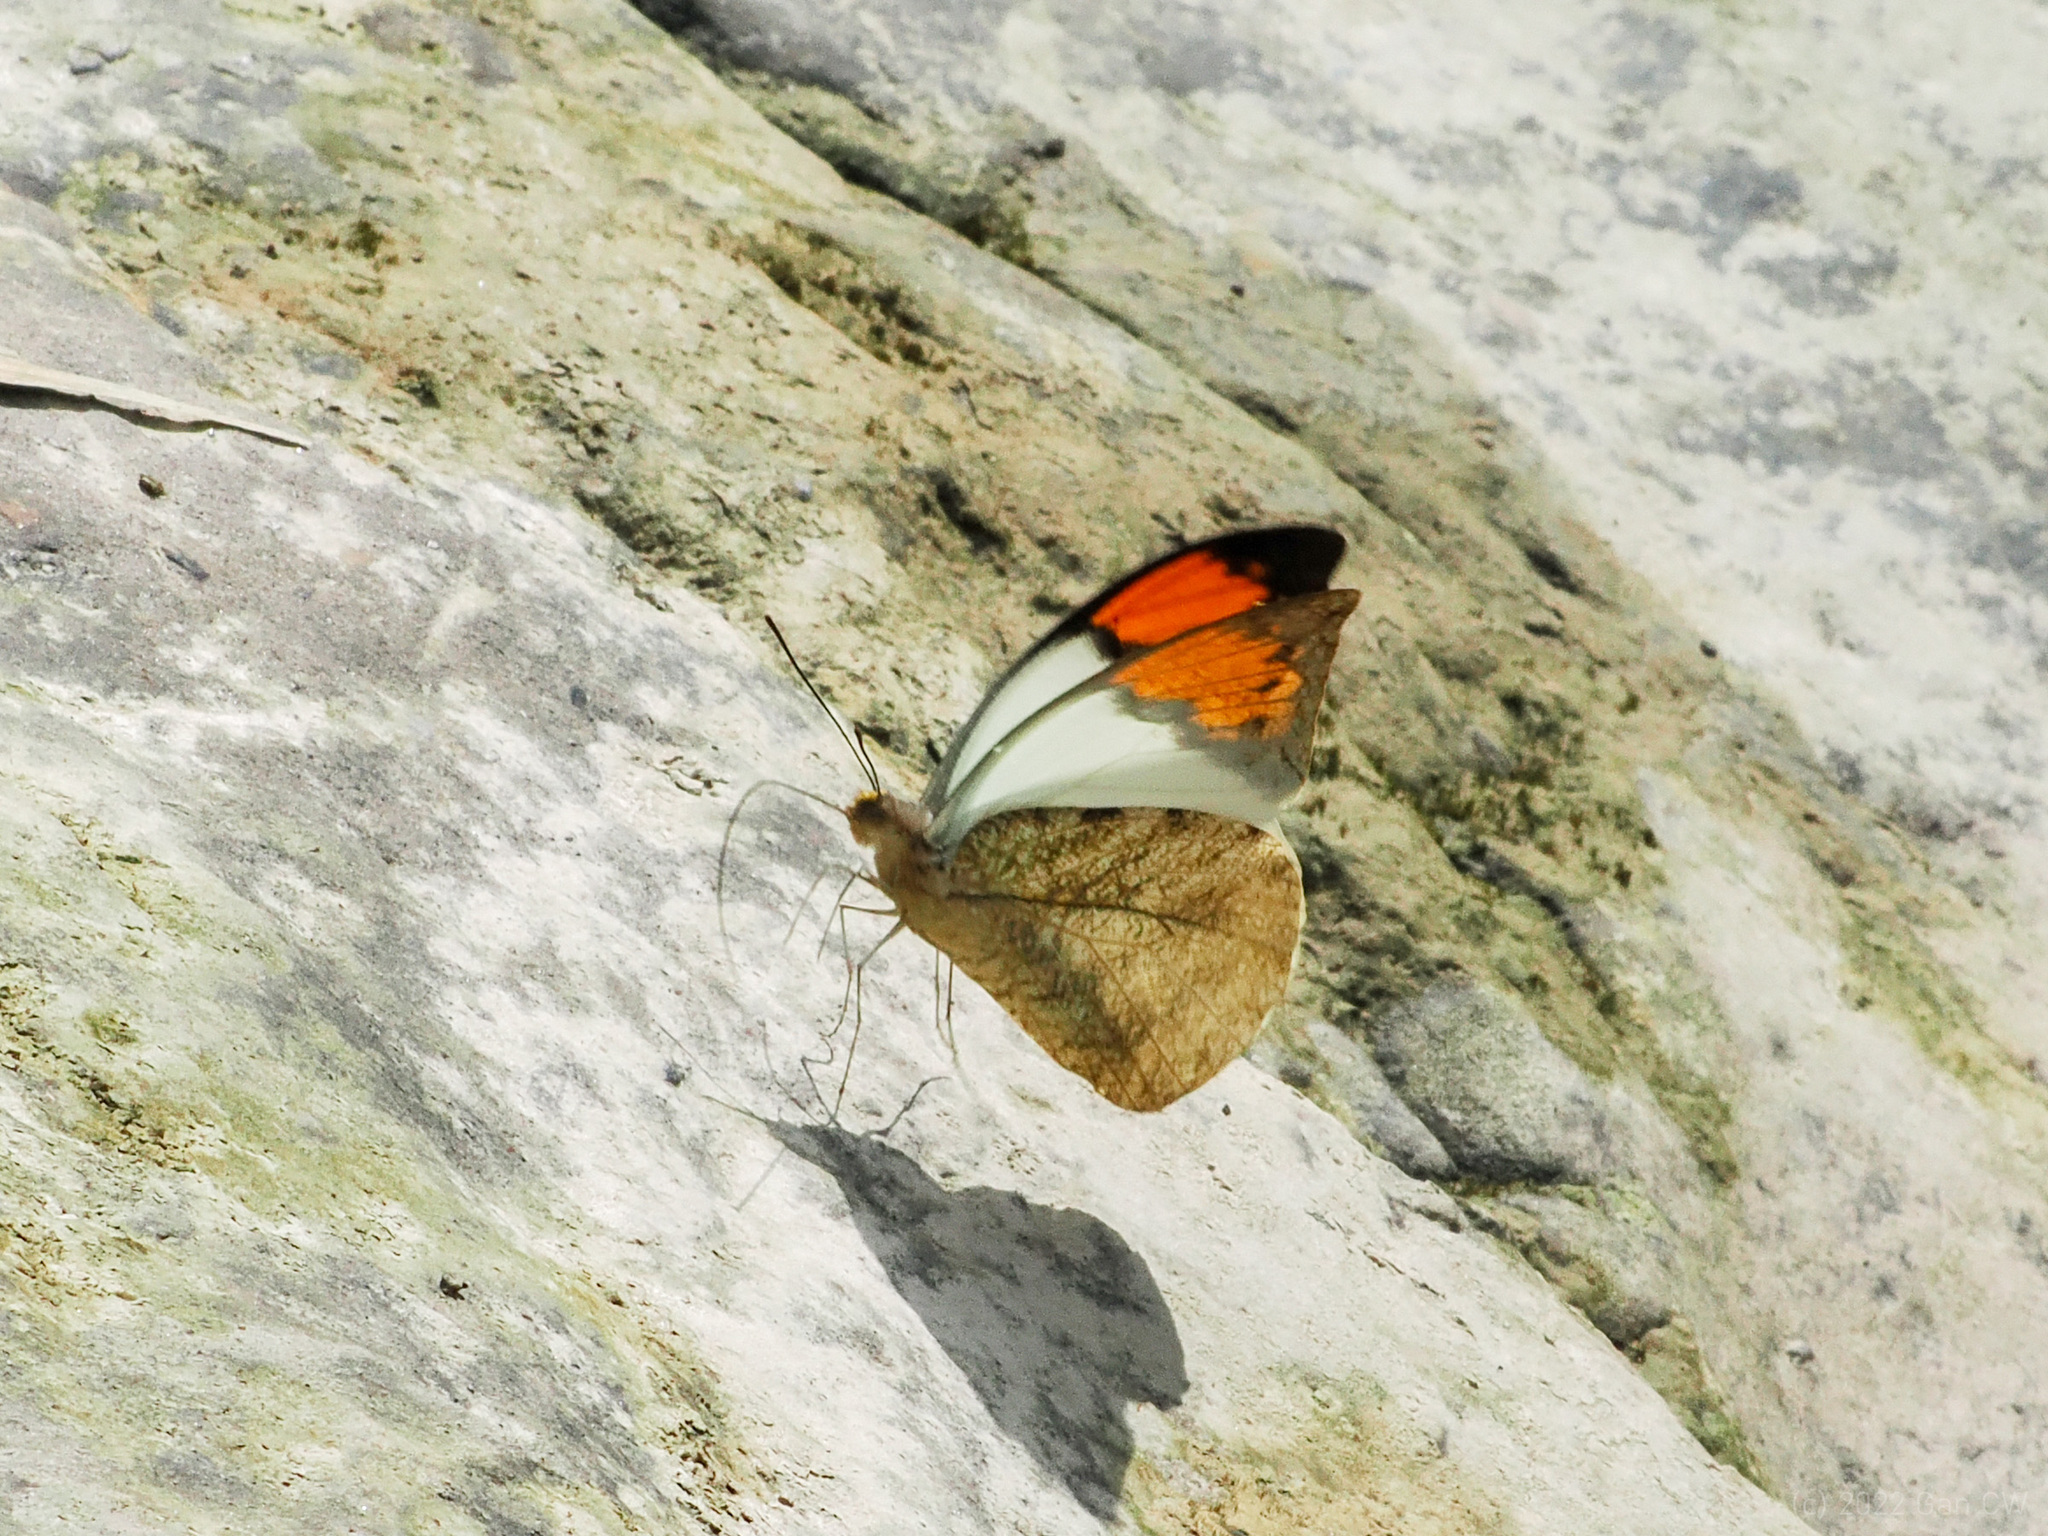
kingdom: Animalia
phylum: Arthropoda
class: Insecta
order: Lepidoptera
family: Pieridae
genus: Hebomoia
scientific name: Hebomoia glaucippe
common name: Great orange tip
